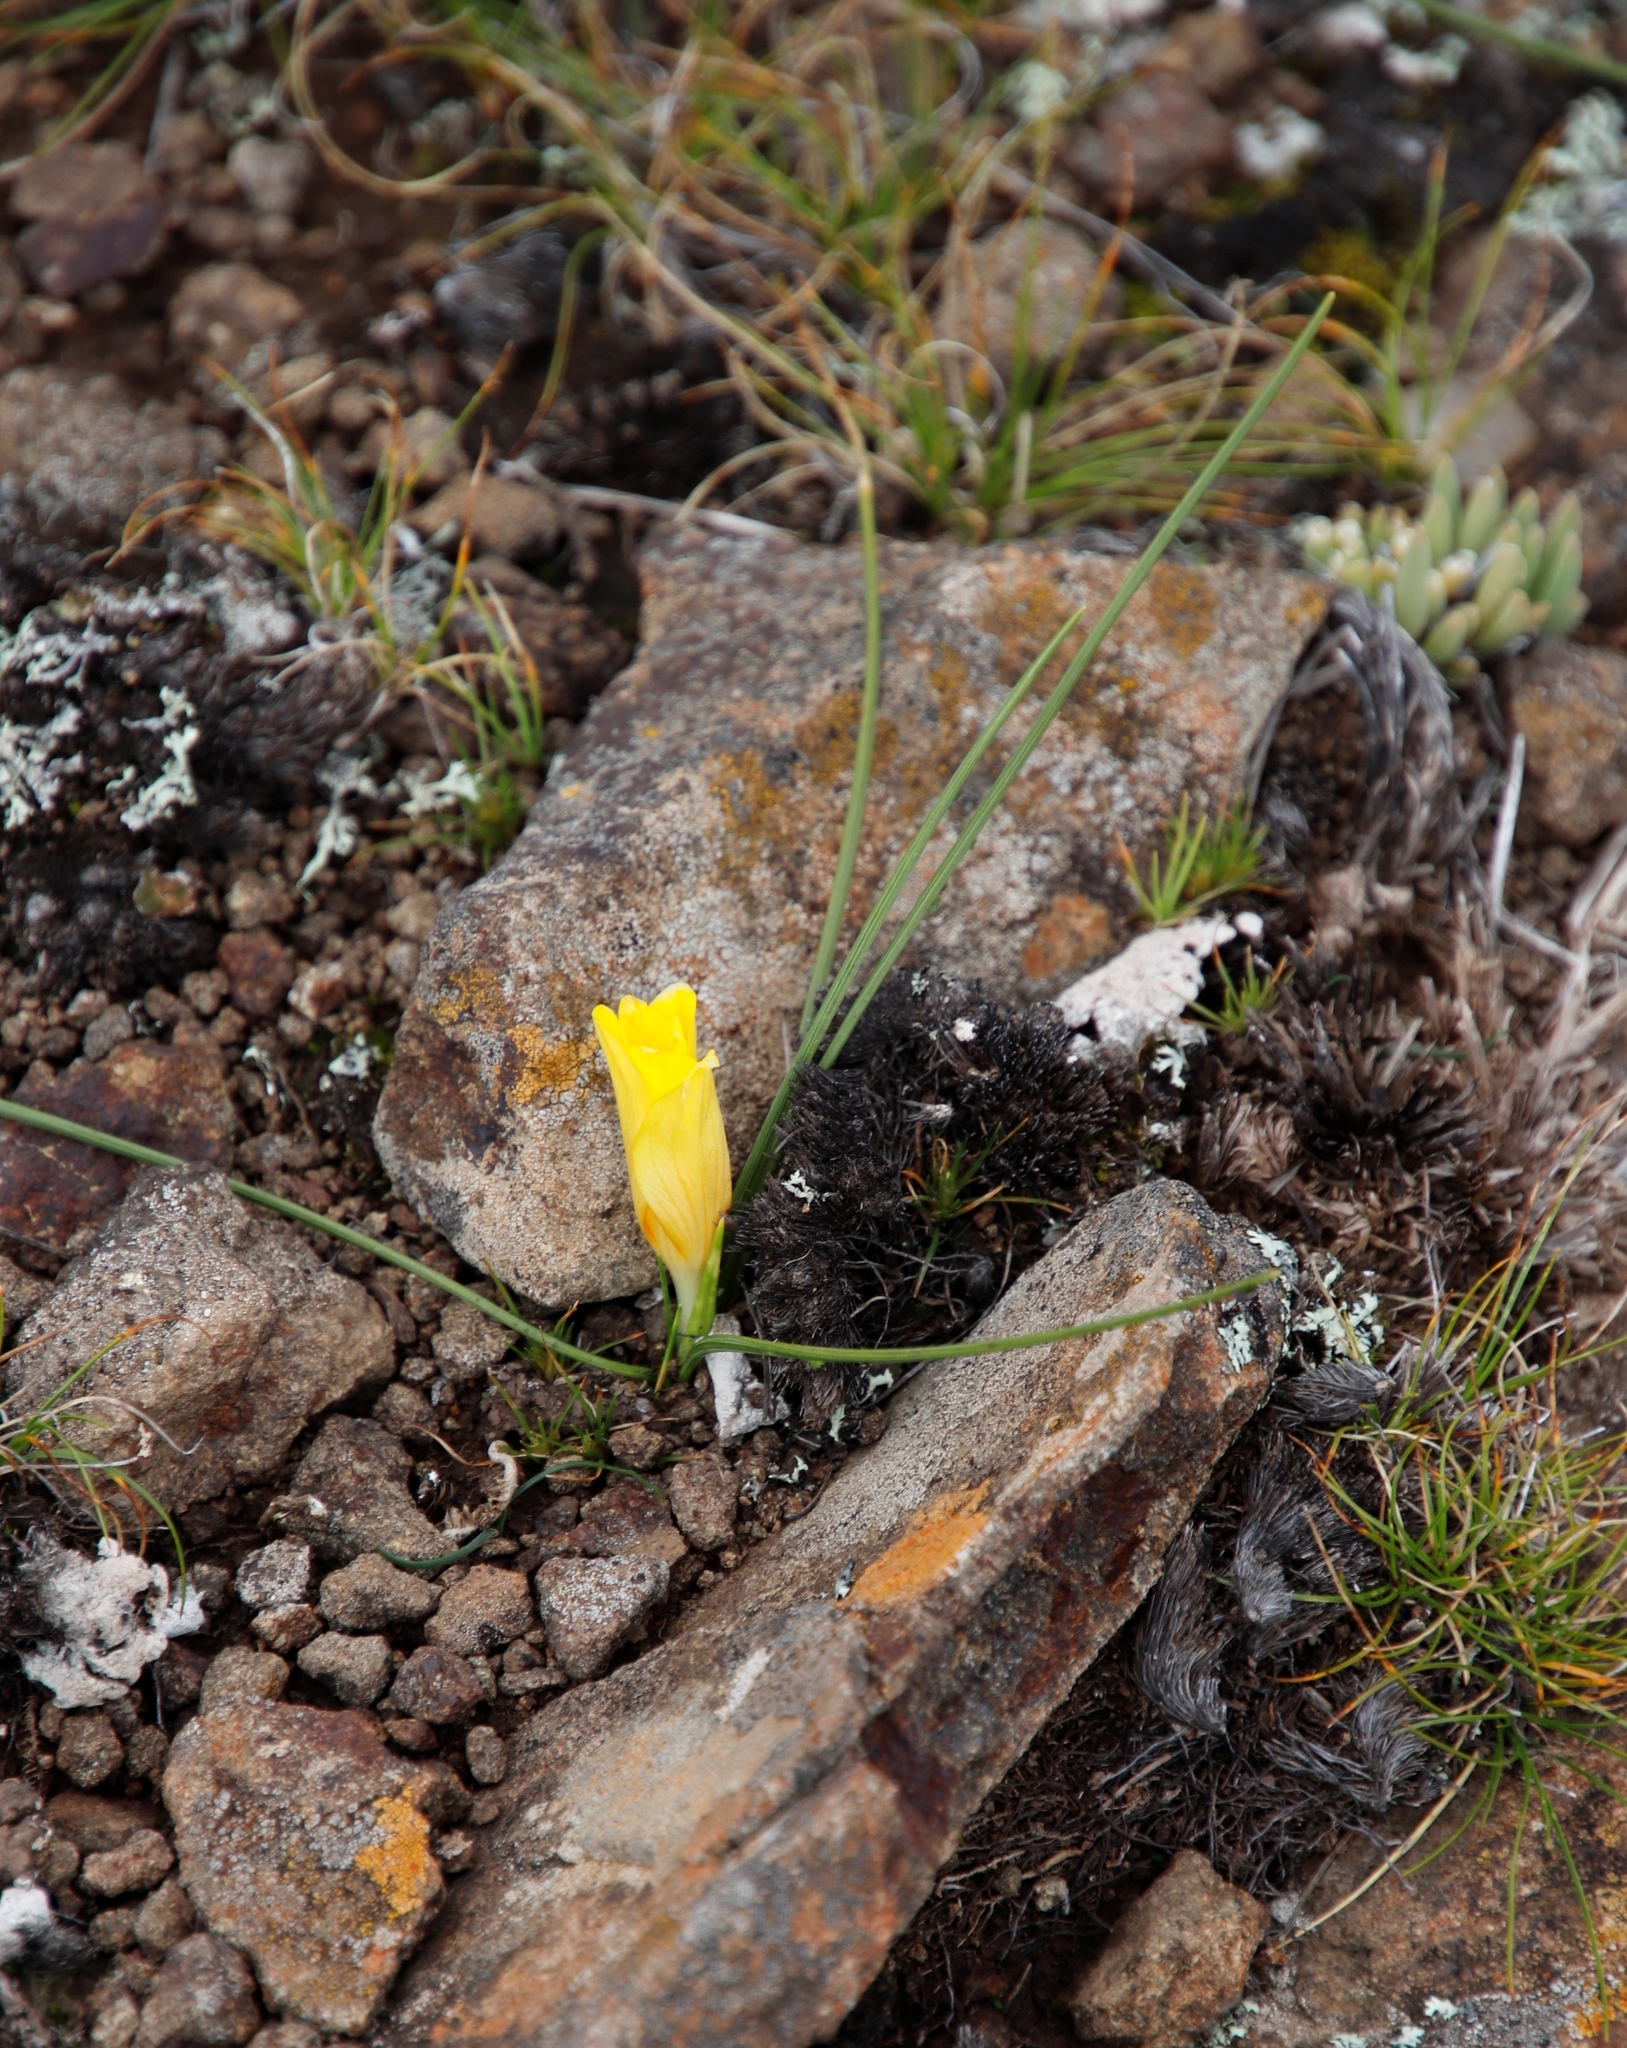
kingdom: Plantae
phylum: Tracheophyta
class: Liliopsida
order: Asparagales
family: Iridaceae
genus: Romulea
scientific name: Romulea macowanii
